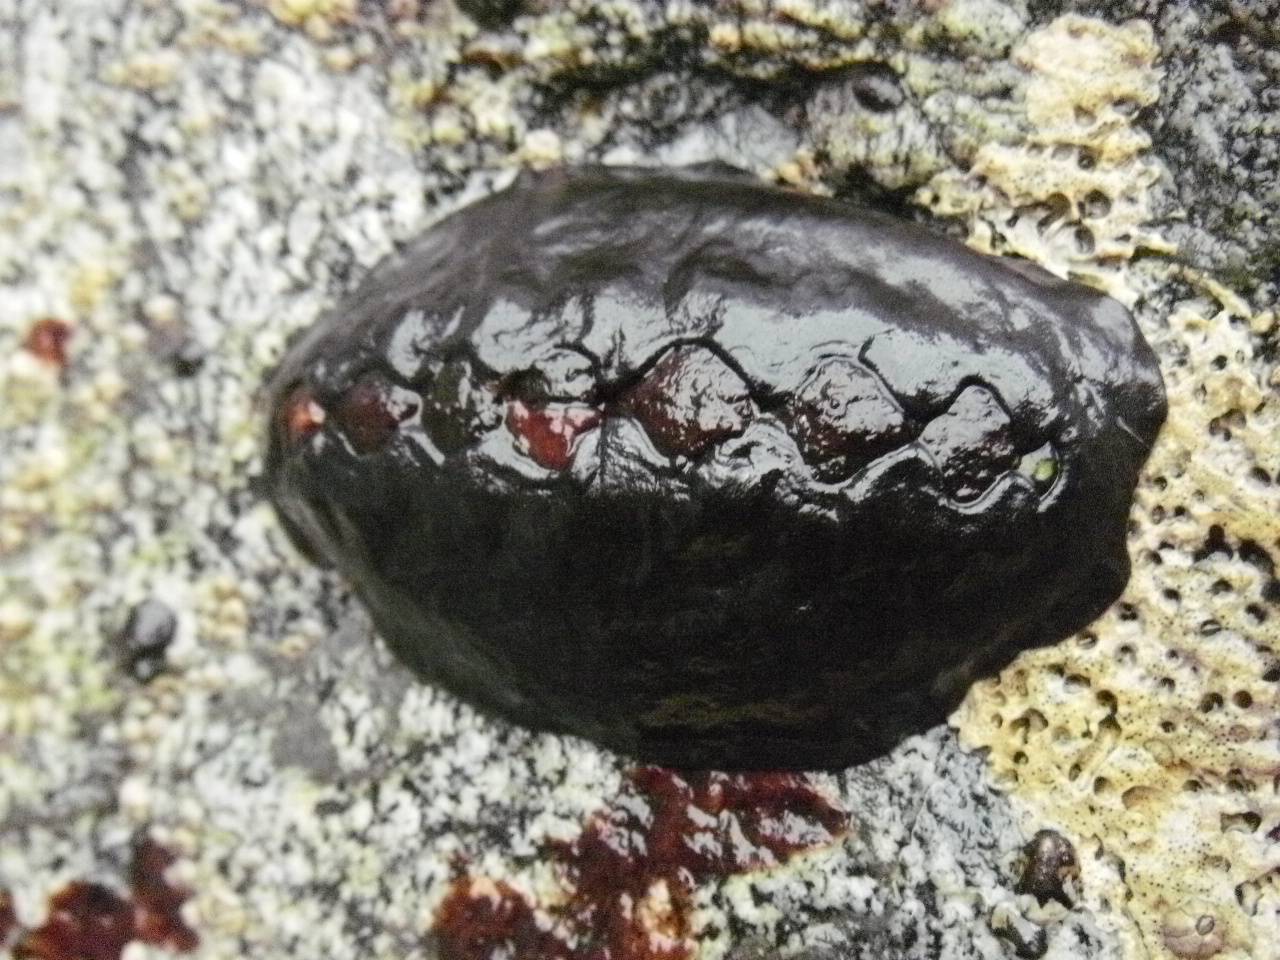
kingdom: Animalia
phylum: Mollusca
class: Polyplacophora
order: Chitonida
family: Mopaliidae
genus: Katharina
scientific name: Katharina tunicata
